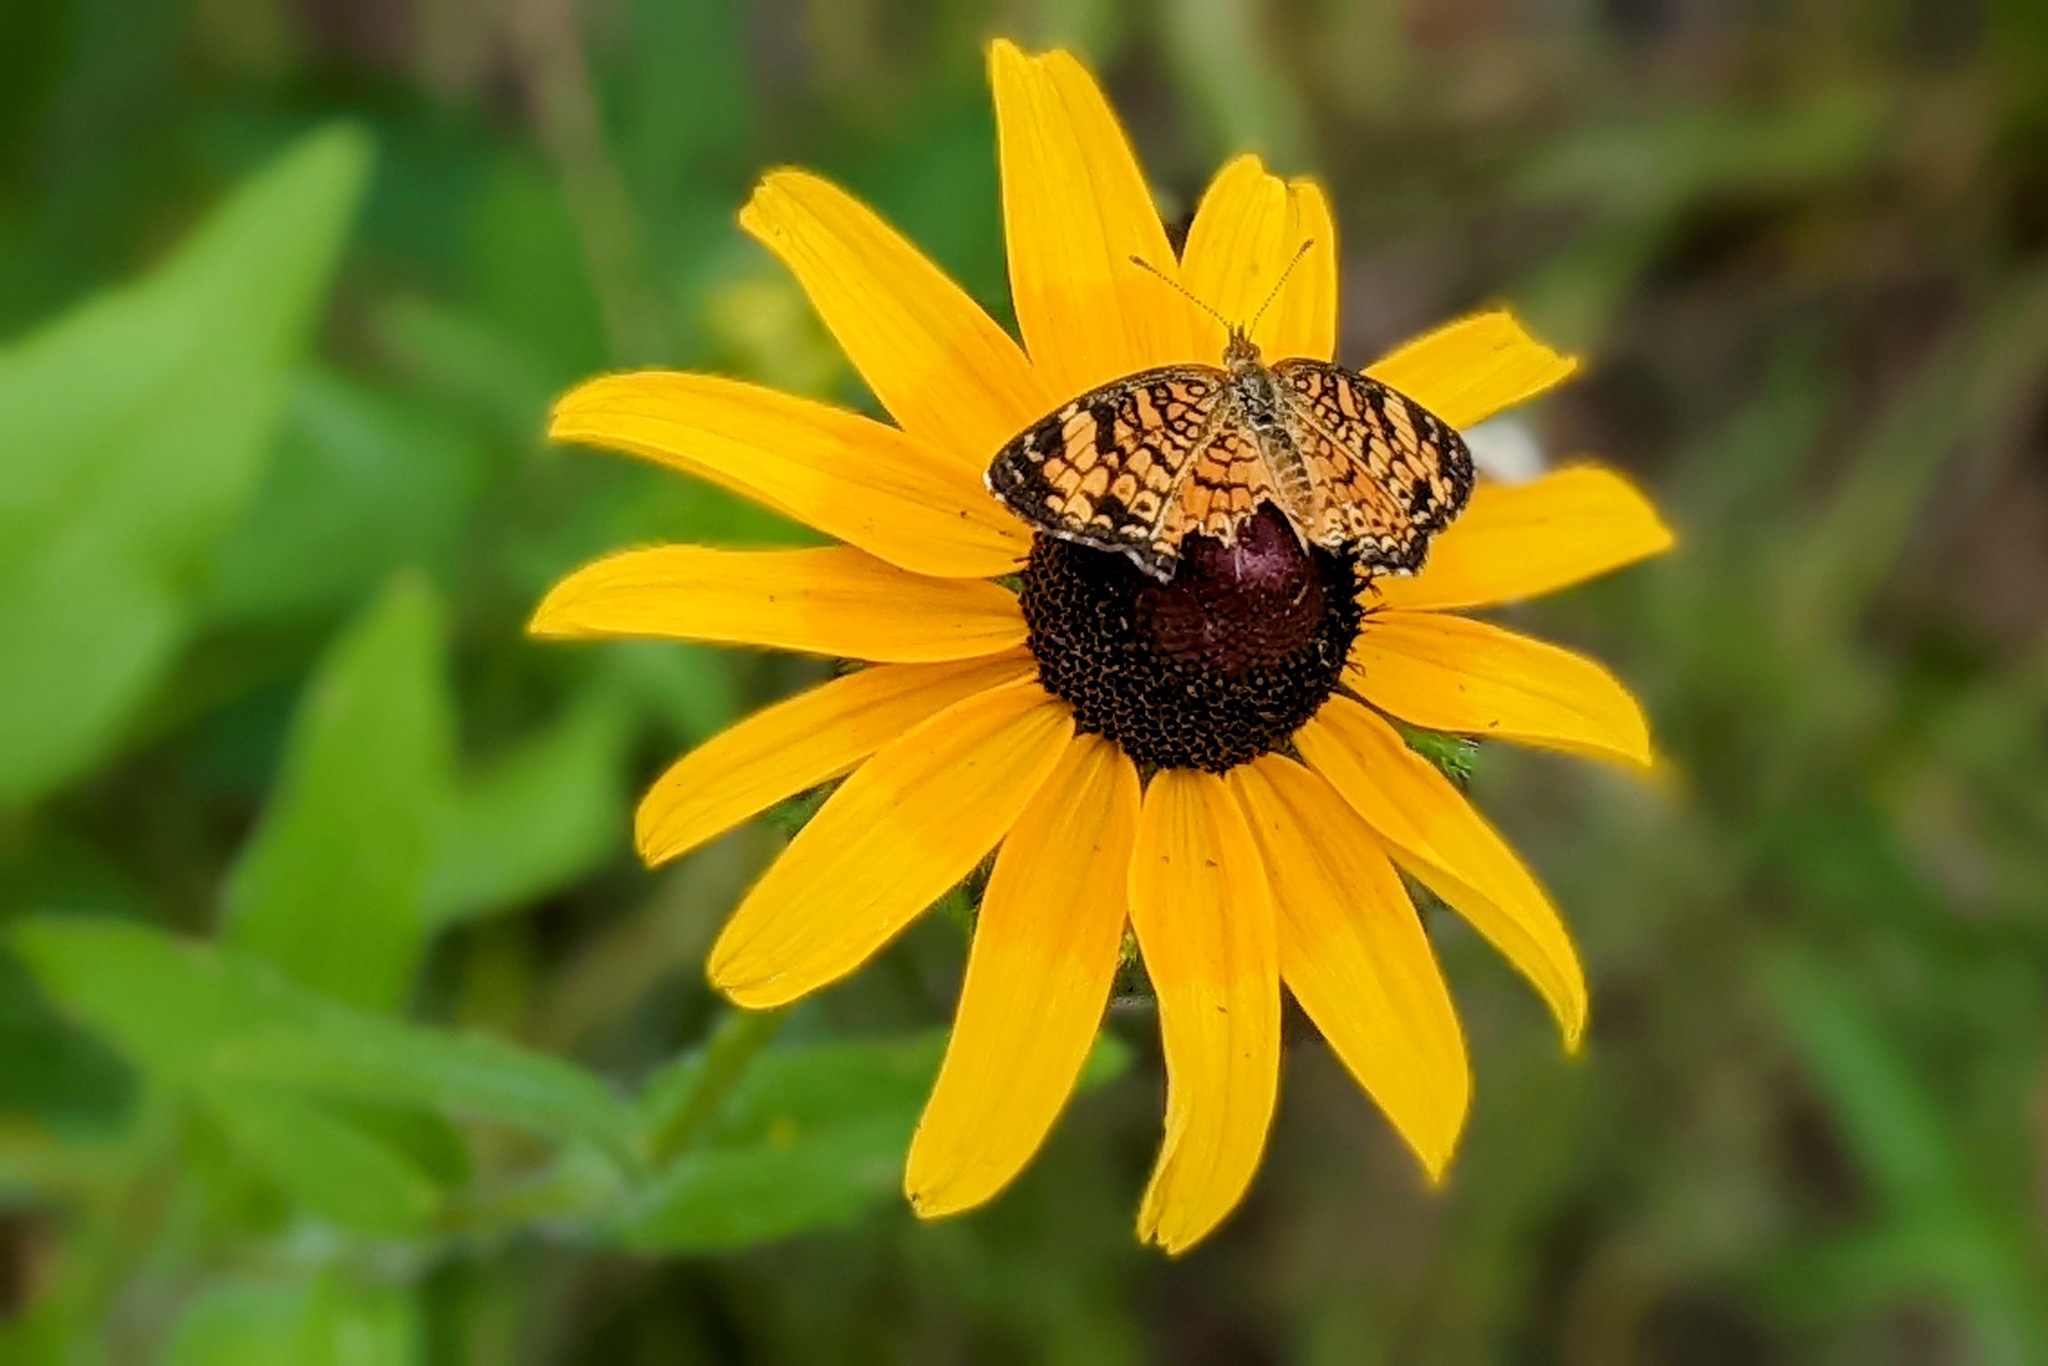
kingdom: Animalia
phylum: Arthropoda
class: Insecta
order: Lepidoptera
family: Nymphalidae
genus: Phyciodes
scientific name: Phyciodes tharos
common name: Pearl crescent
